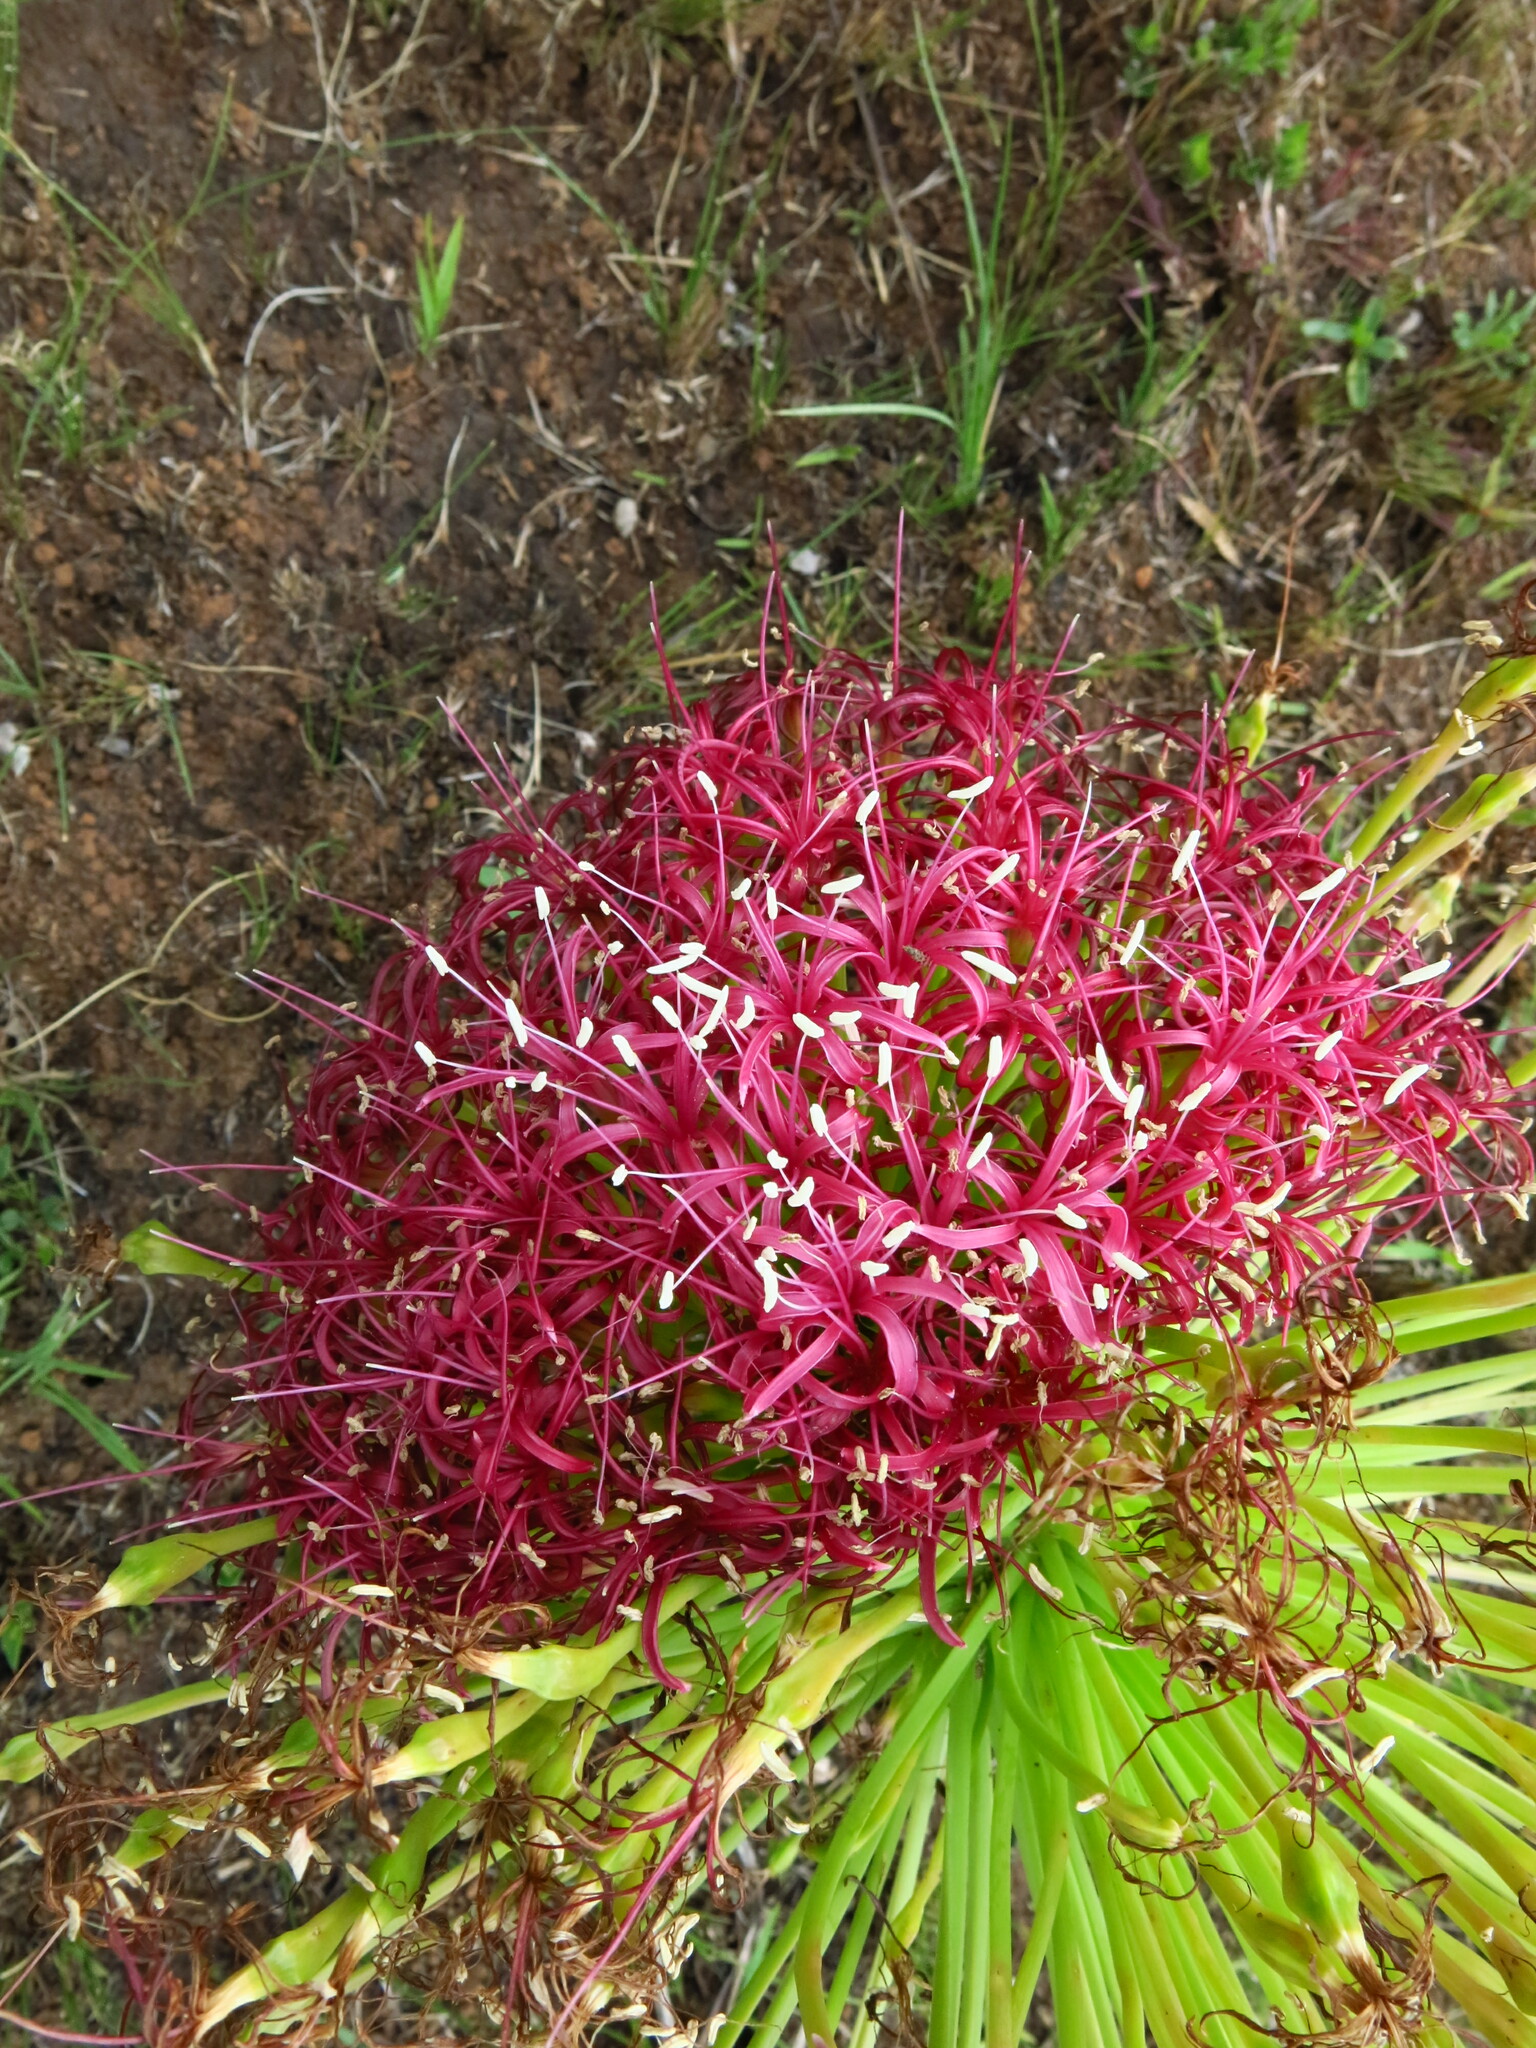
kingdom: Plantae
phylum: Tracheophyta
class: Liliopsida
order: Asparagales
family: Amaryllidaceae
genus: Boophone
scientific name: Boophone disticha
